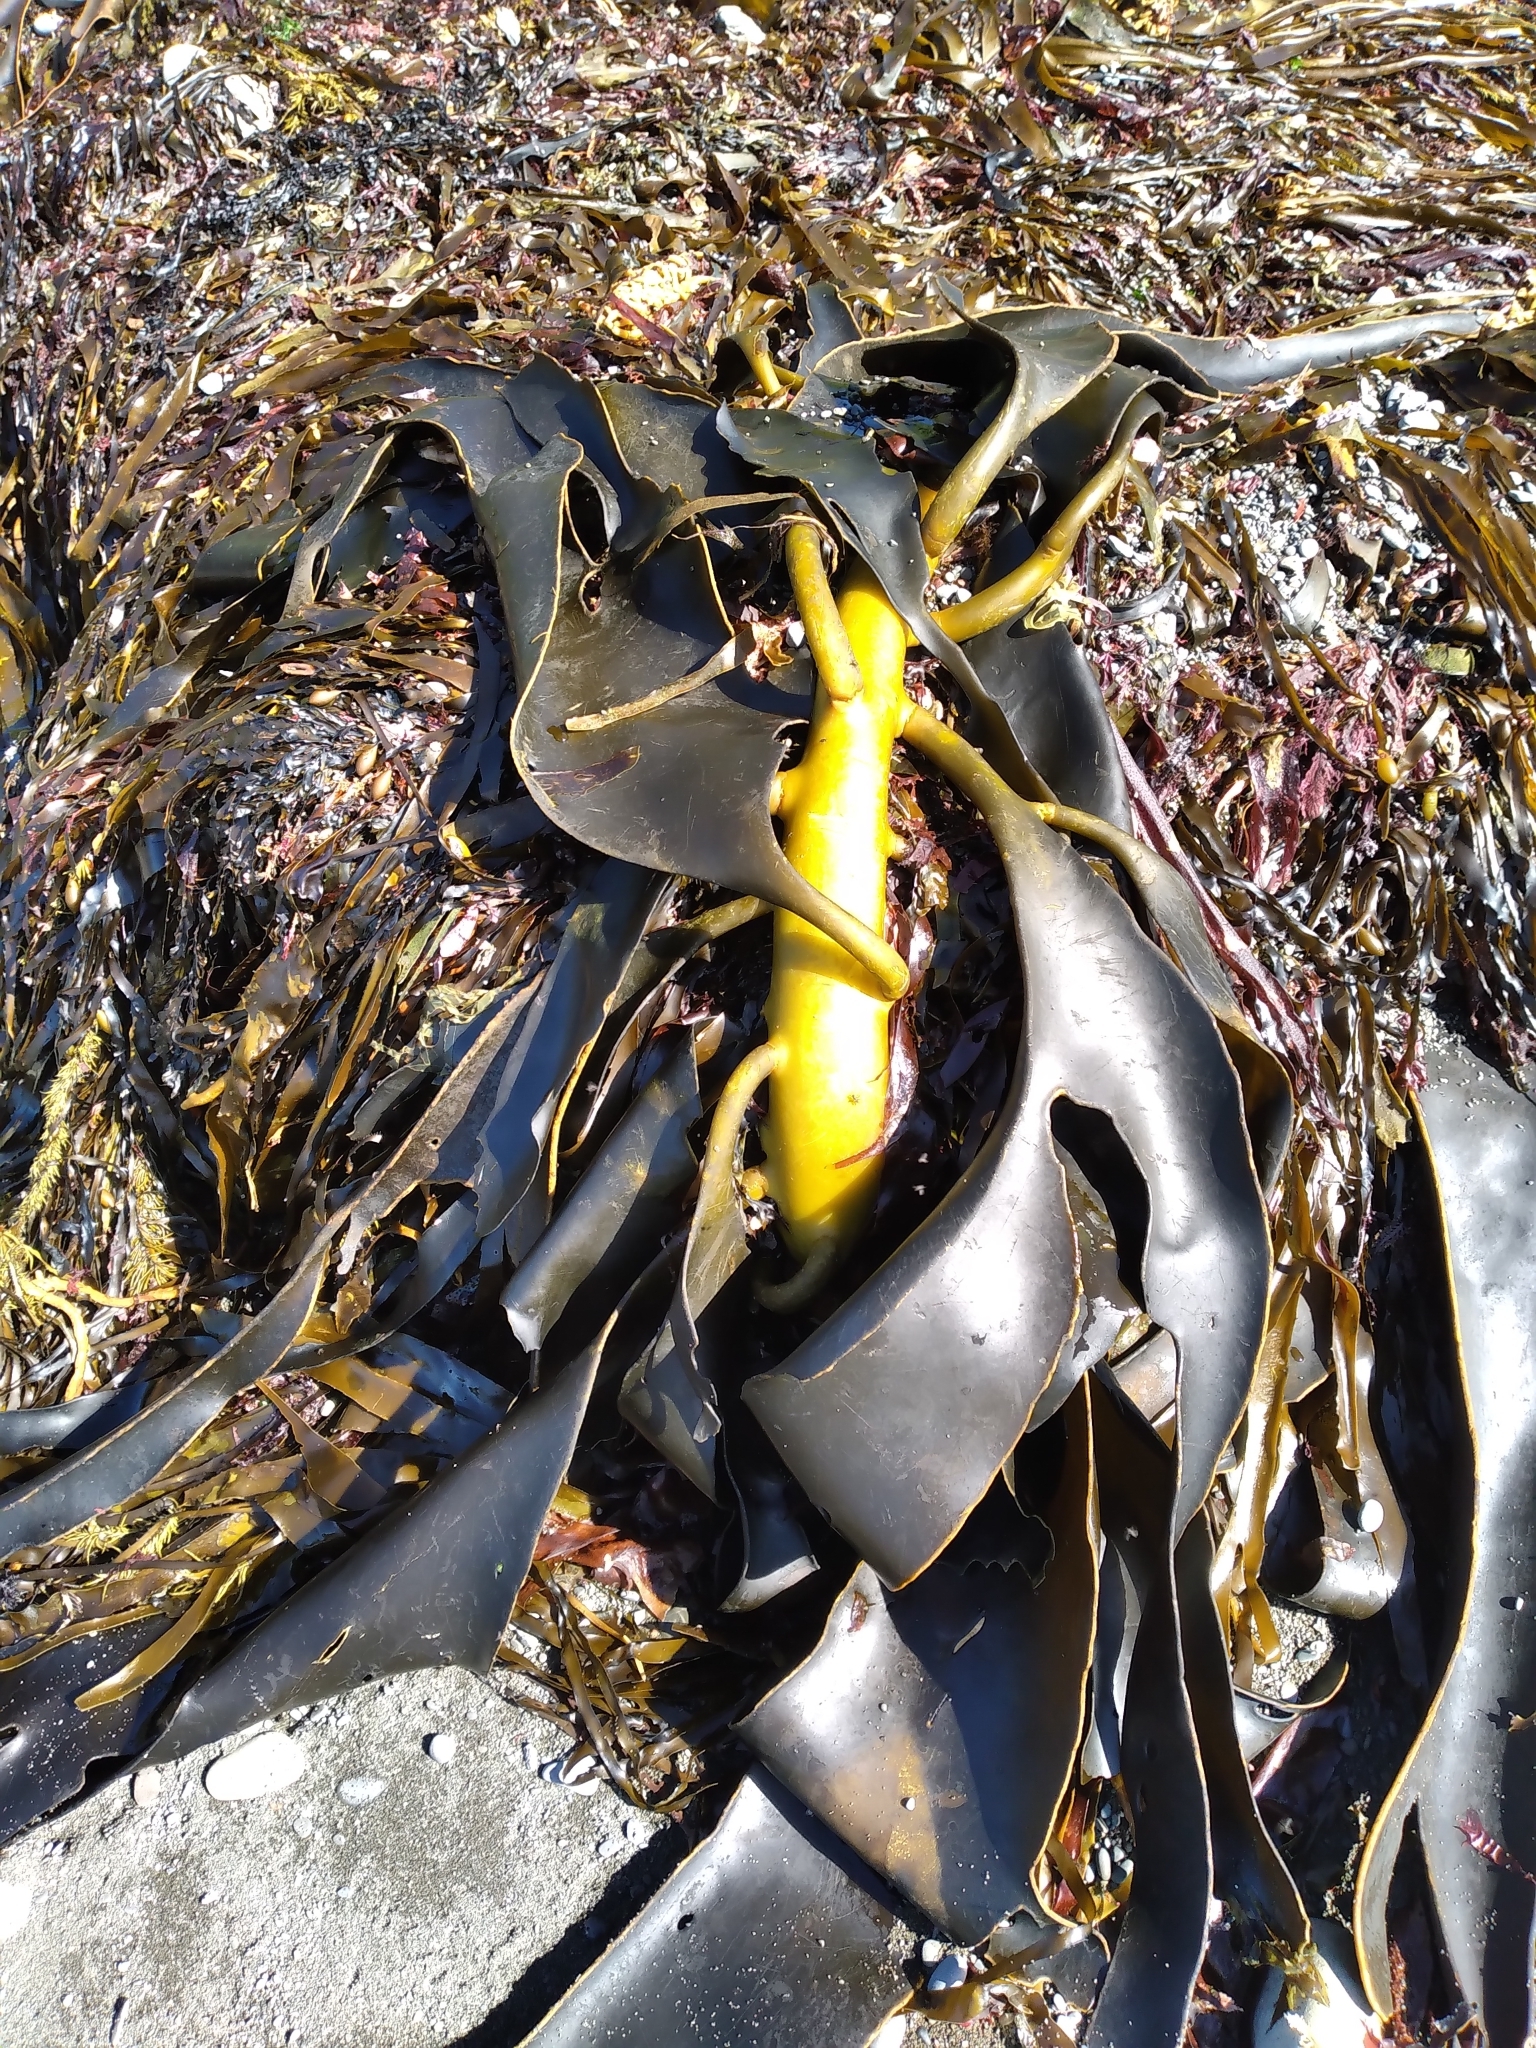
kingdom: Chromista
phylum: Ochrophyta
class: Phaeophyceae
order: Fucales
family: Durvillaeaceae
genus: Durvillaea
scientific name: Durvillaea willana
